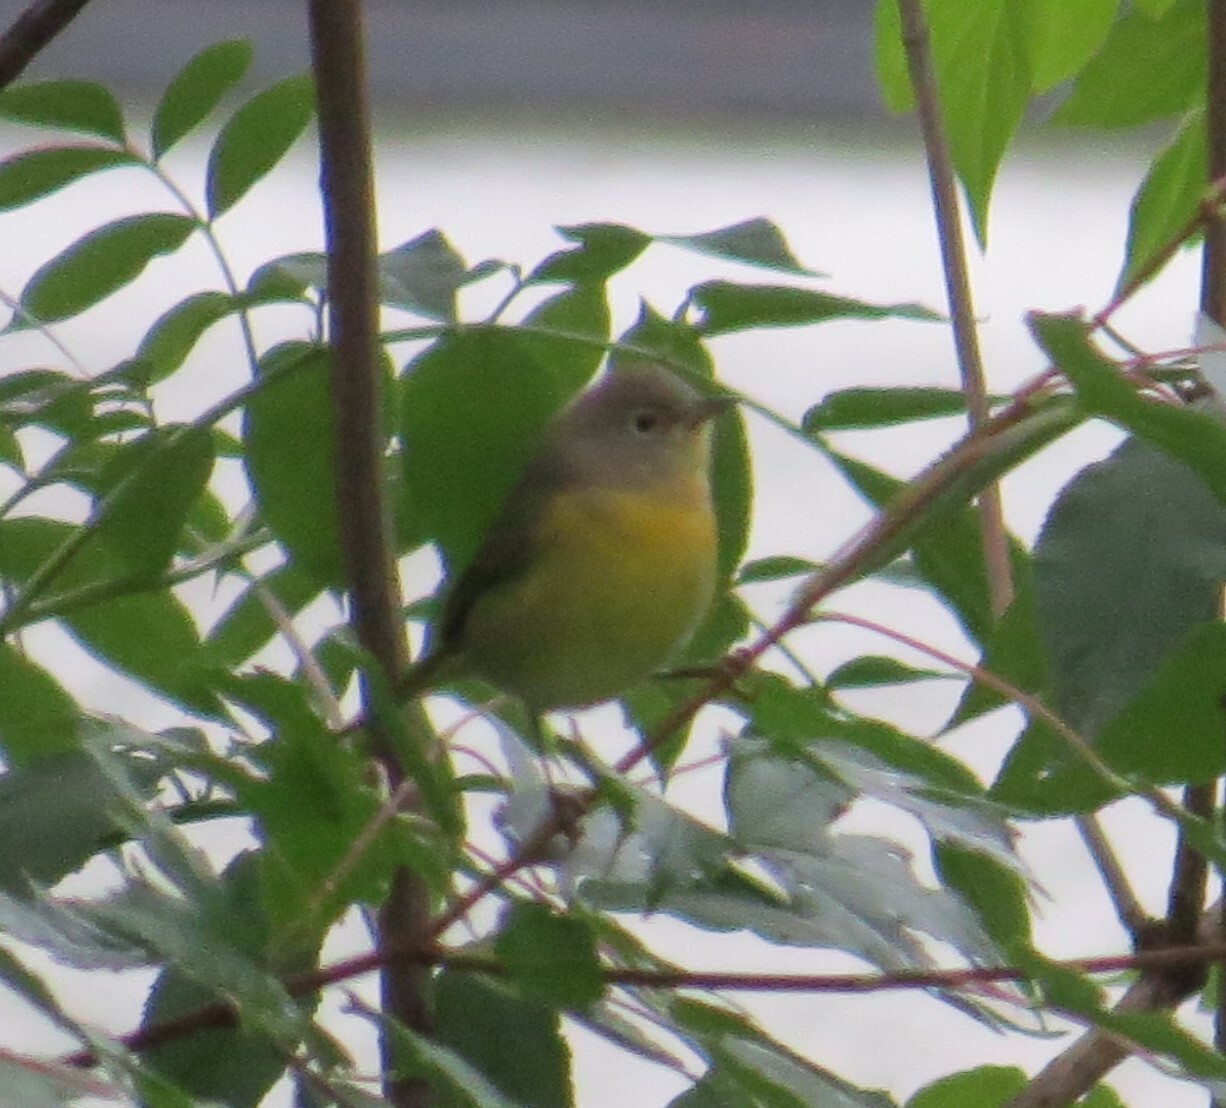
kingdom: Animalia
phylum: Chordata
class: Aves
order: Passeriformes
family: Parulidae
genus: Leiothlypis
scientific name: Leiothlypis ruficapilla
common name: Nashville warbler
